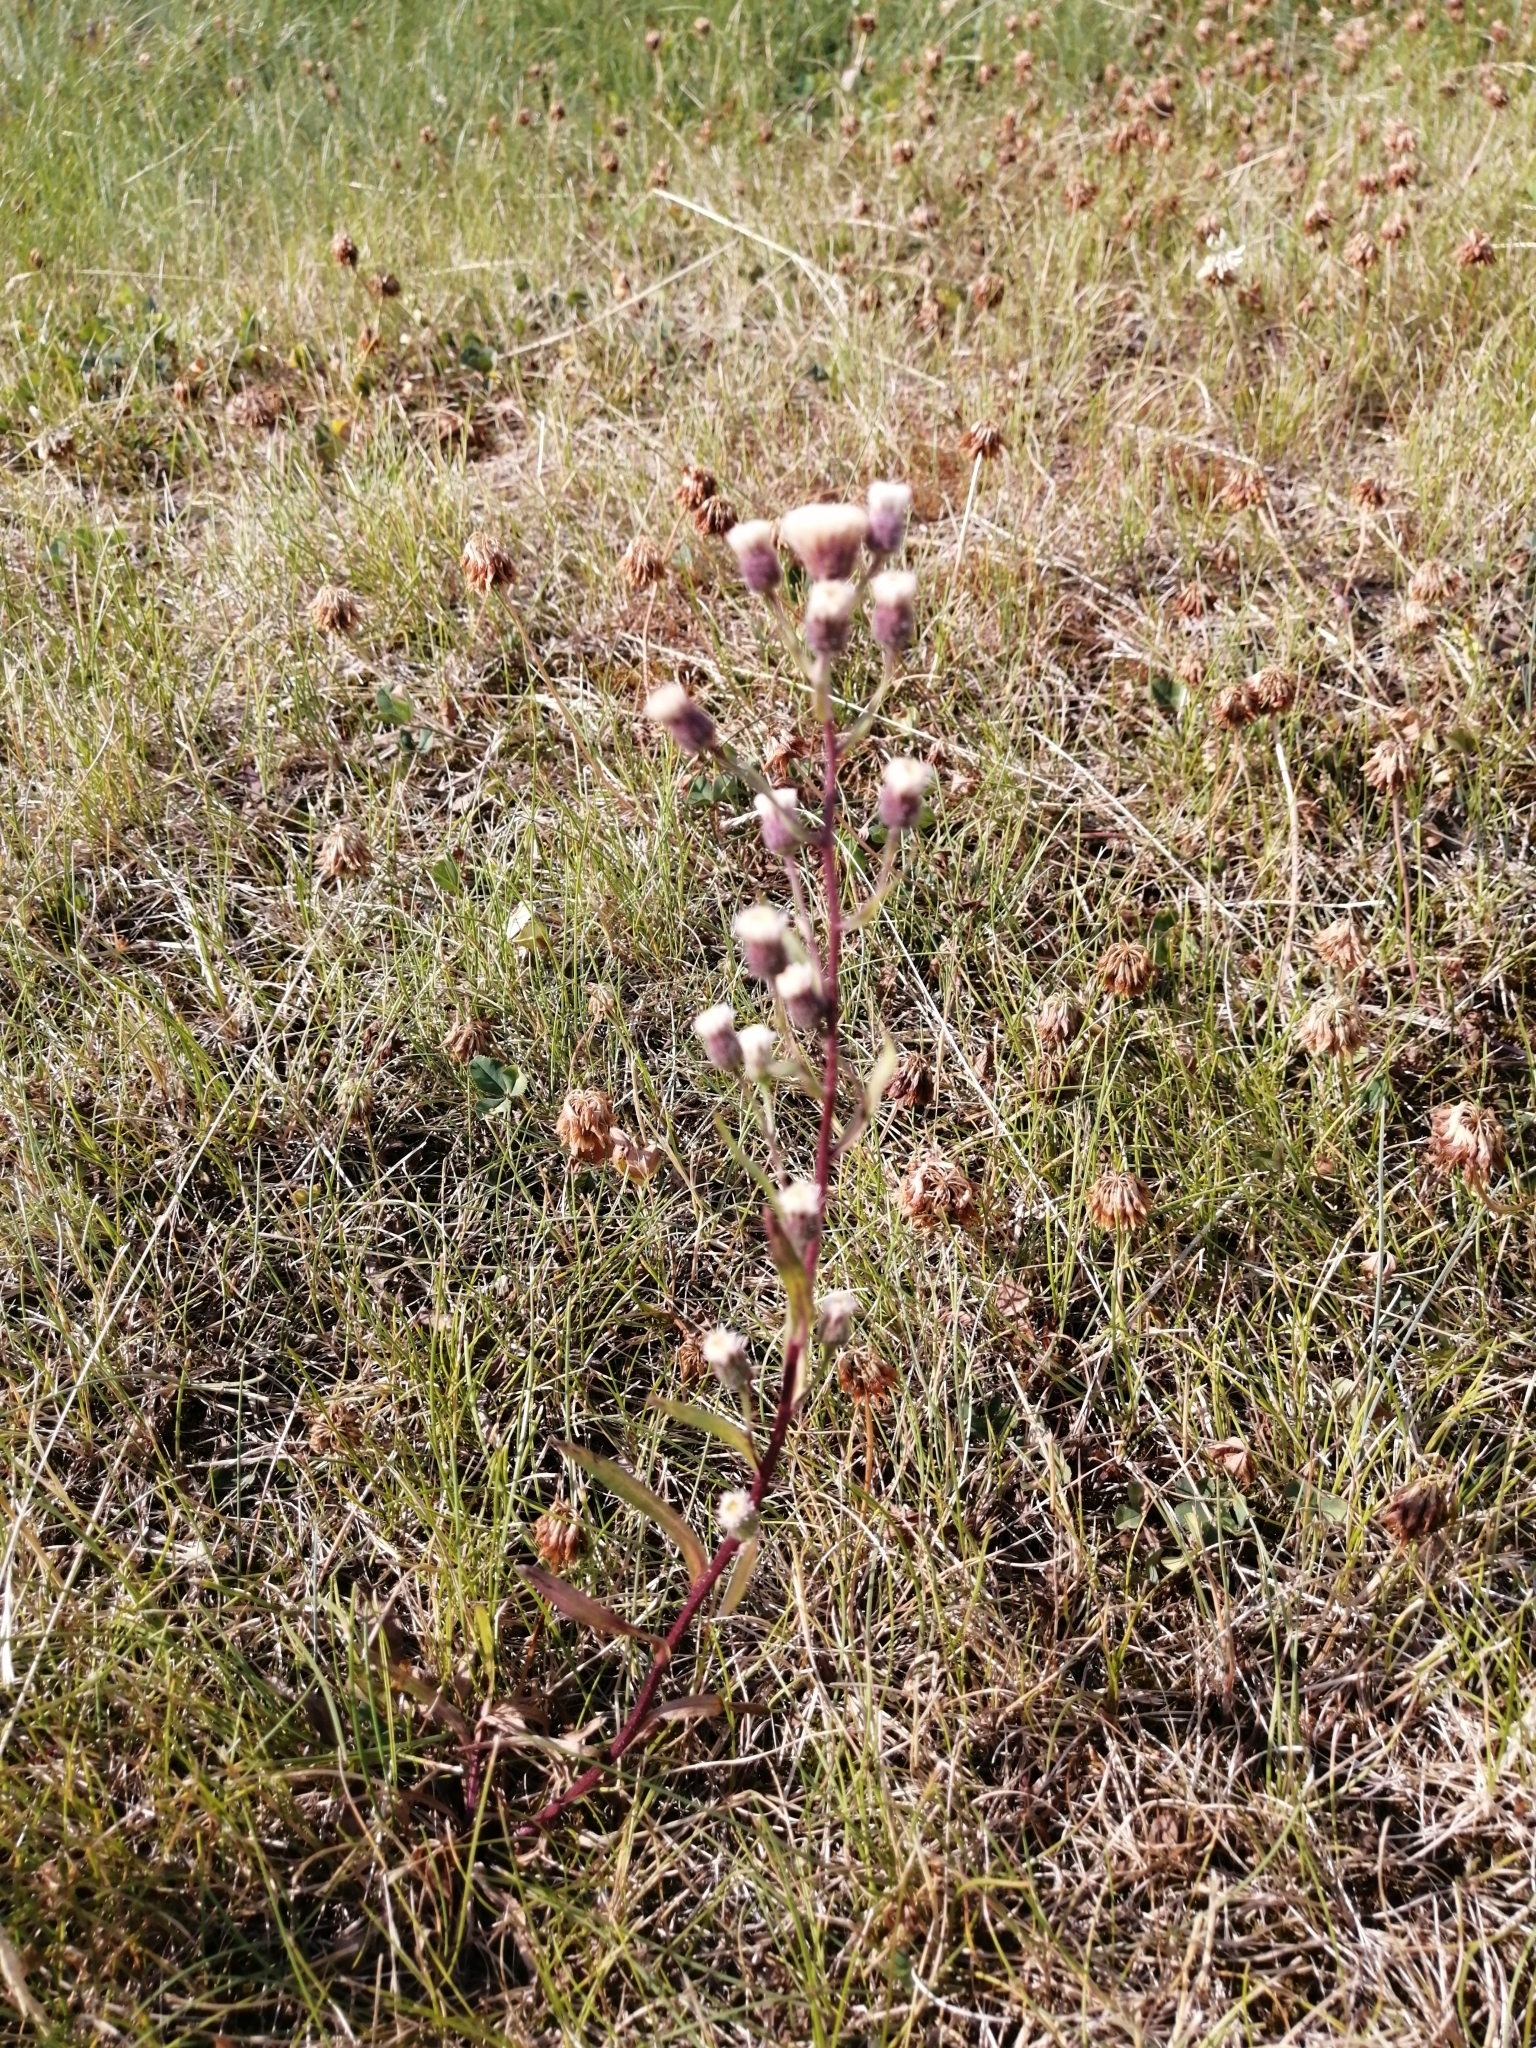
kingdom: Plantae
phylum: Tracheophyta
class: Magnoliopsida
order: Asterales
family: Asteraceae
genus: Erigeron
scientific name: Erigeron acris
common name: Blue fleabane
